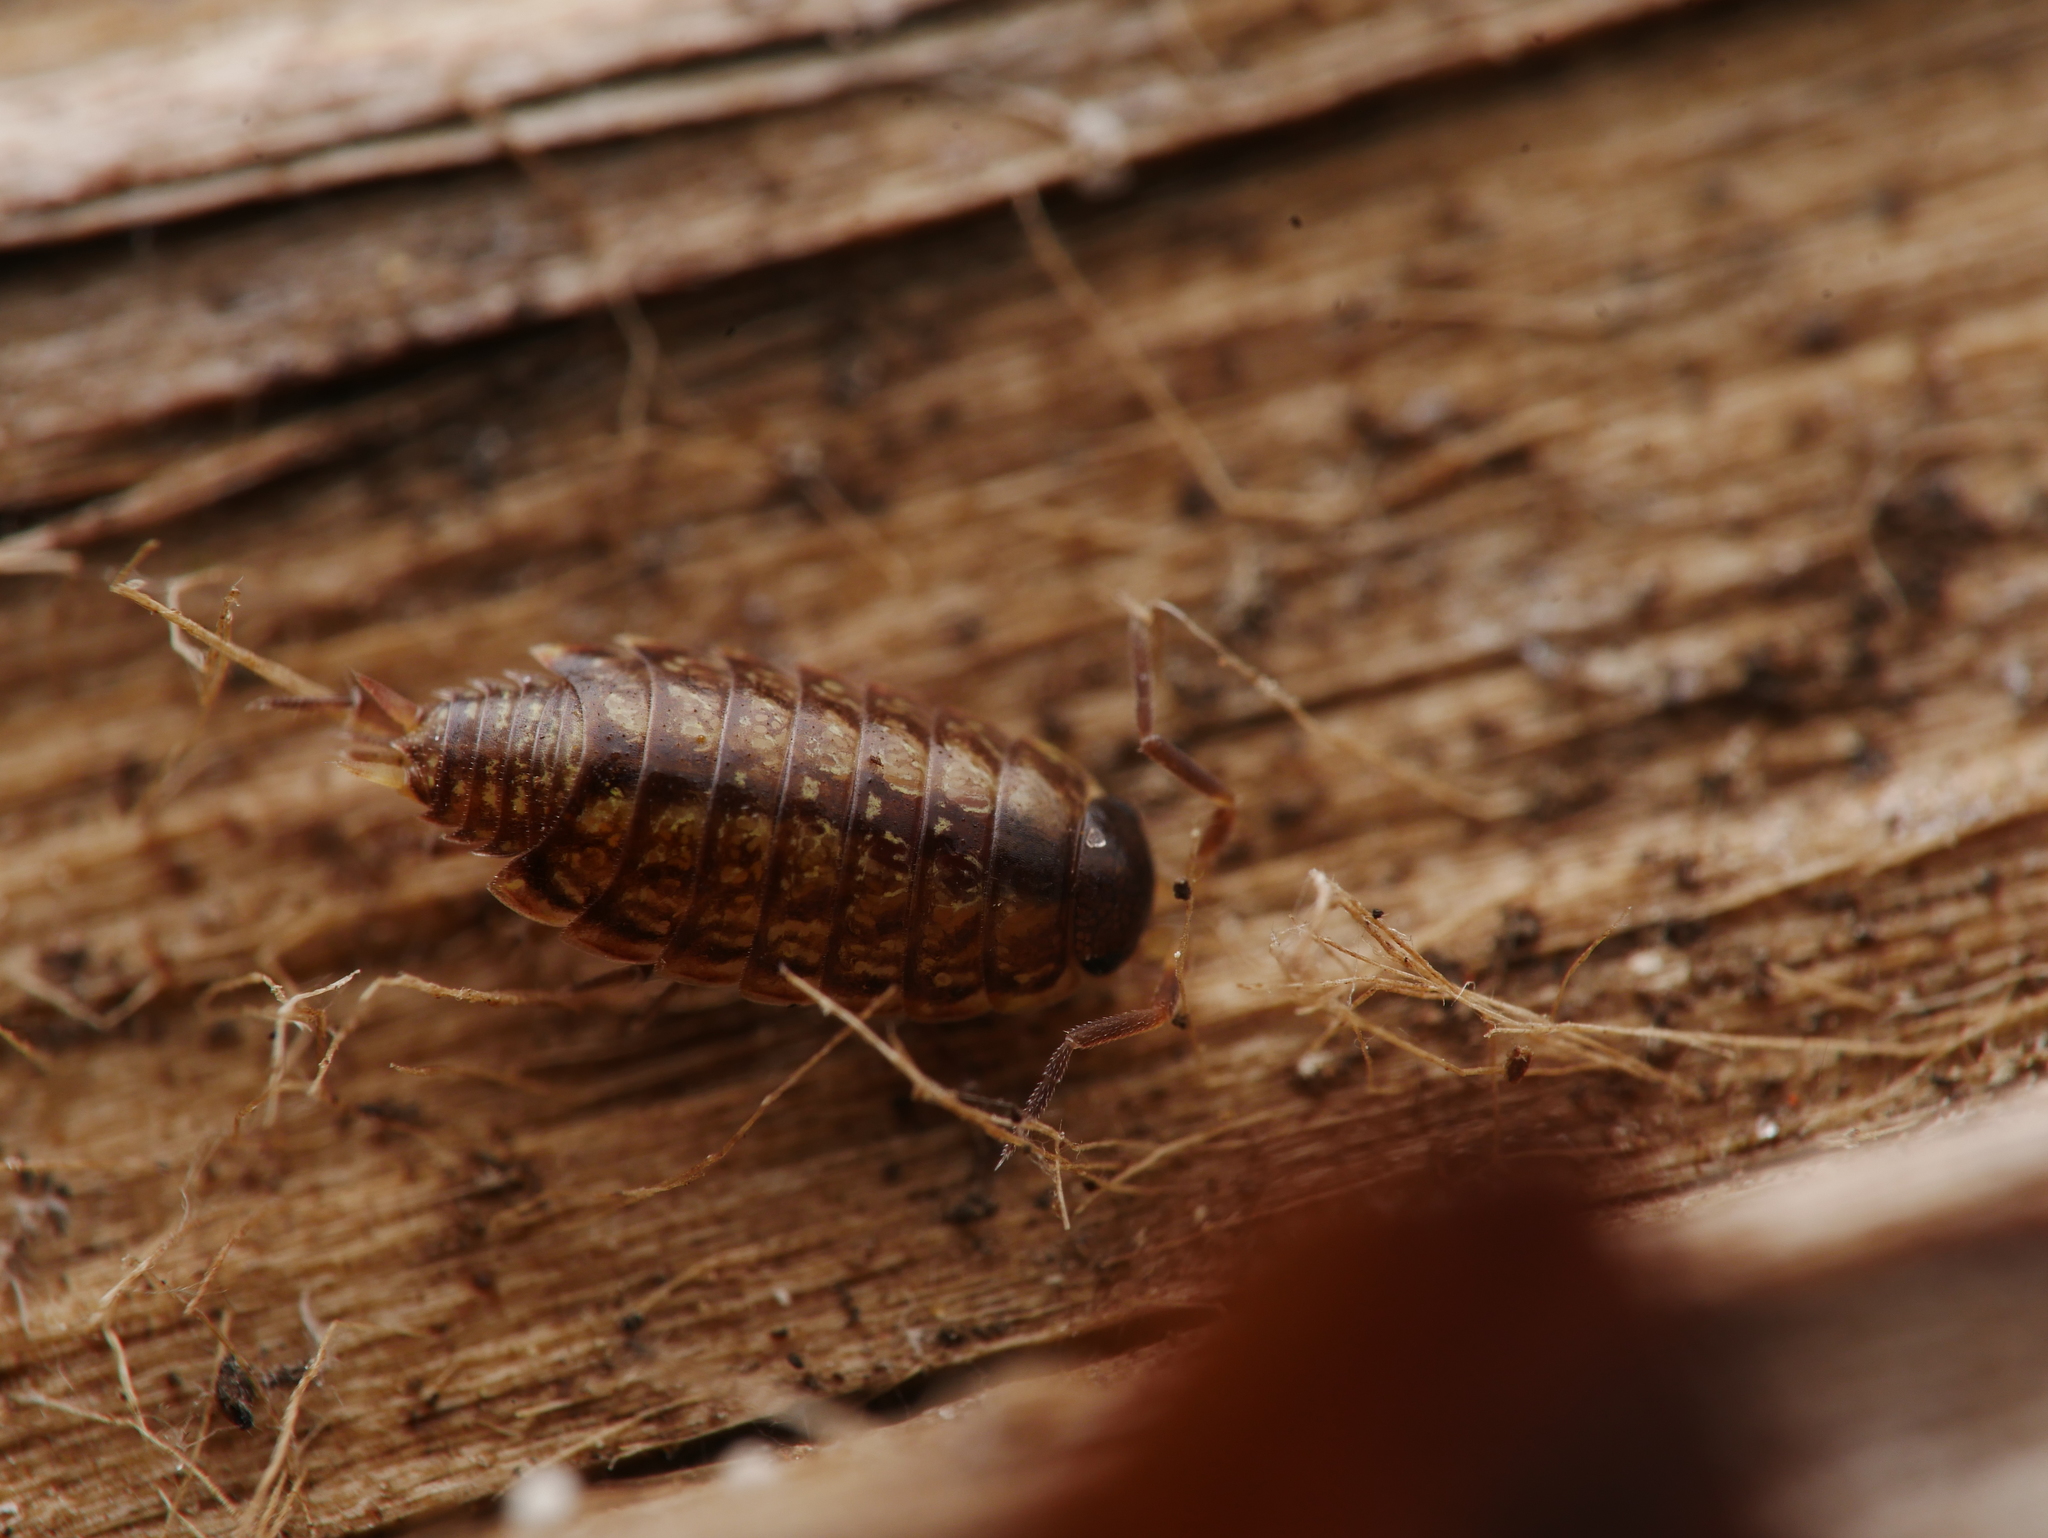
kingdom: Animalia
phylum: Arthropoda
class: Malacostraca
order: Isopoda
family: Philosciidae
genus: Philoscia
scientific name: Philoscia muscorum
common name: Common striped woodlouse
